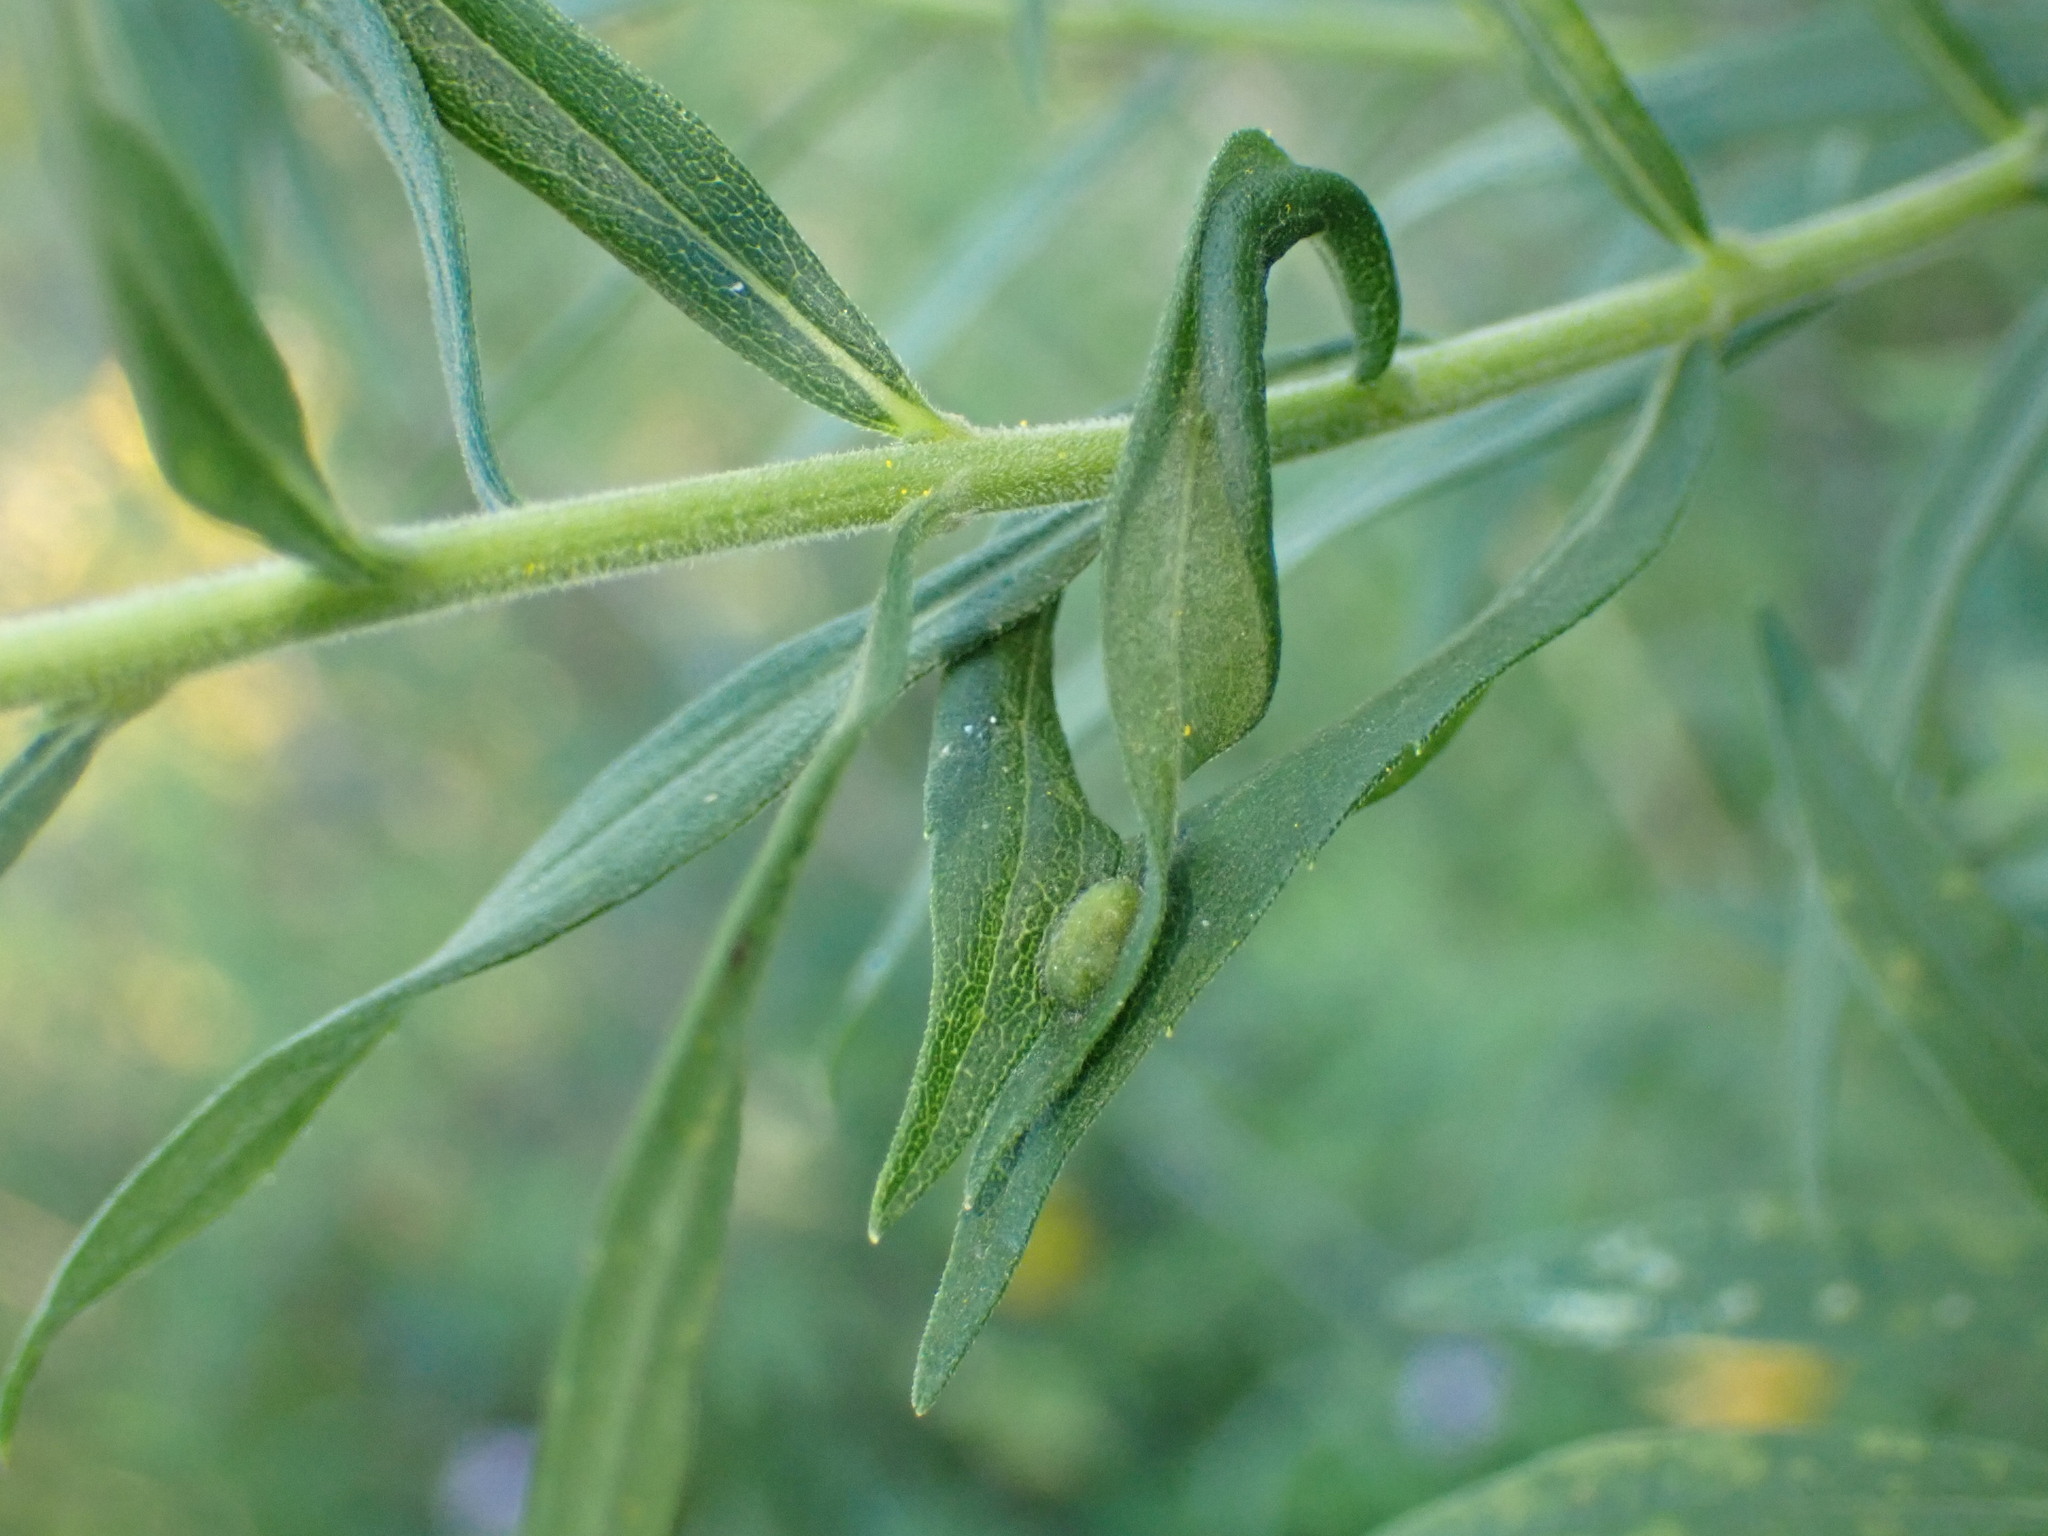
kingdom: Animalia
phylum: Arthropoda
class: Insecta
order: Diptera
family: Cecidomyiidae
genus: Asphondylia
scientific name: Asphondylia solidaginis
